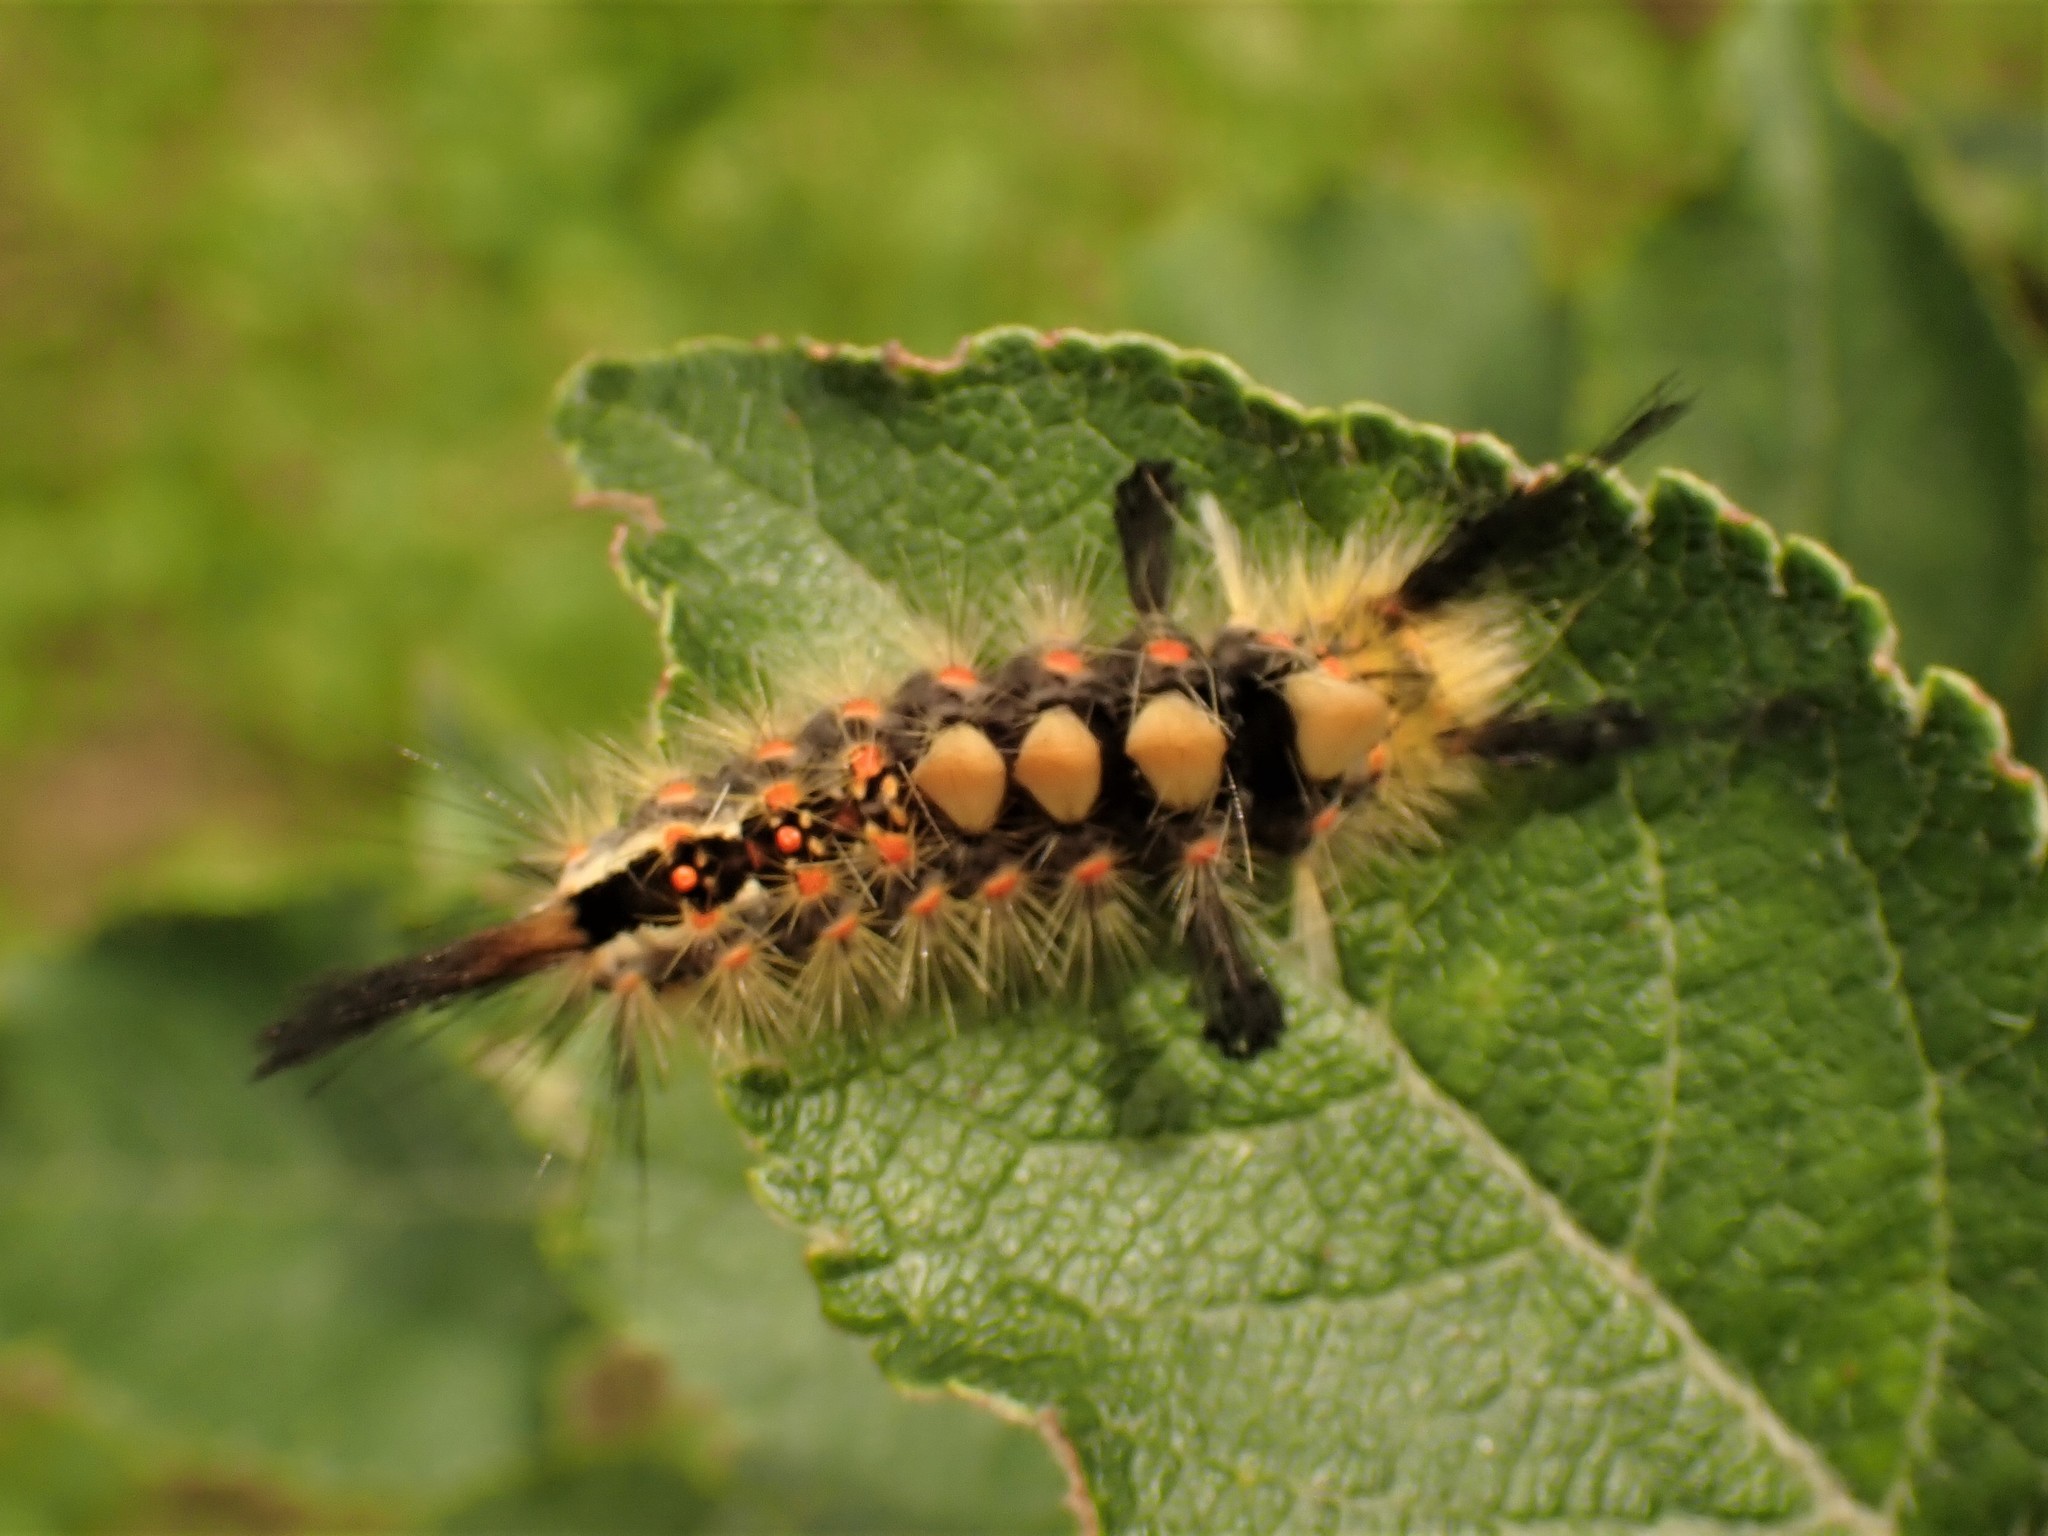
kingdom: Animalia
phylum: Arthropoda
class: Insecta
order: Lepidoptera
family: Erebidae
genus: Orgyia
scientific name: Orgyia antiqua
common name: Vapourer
